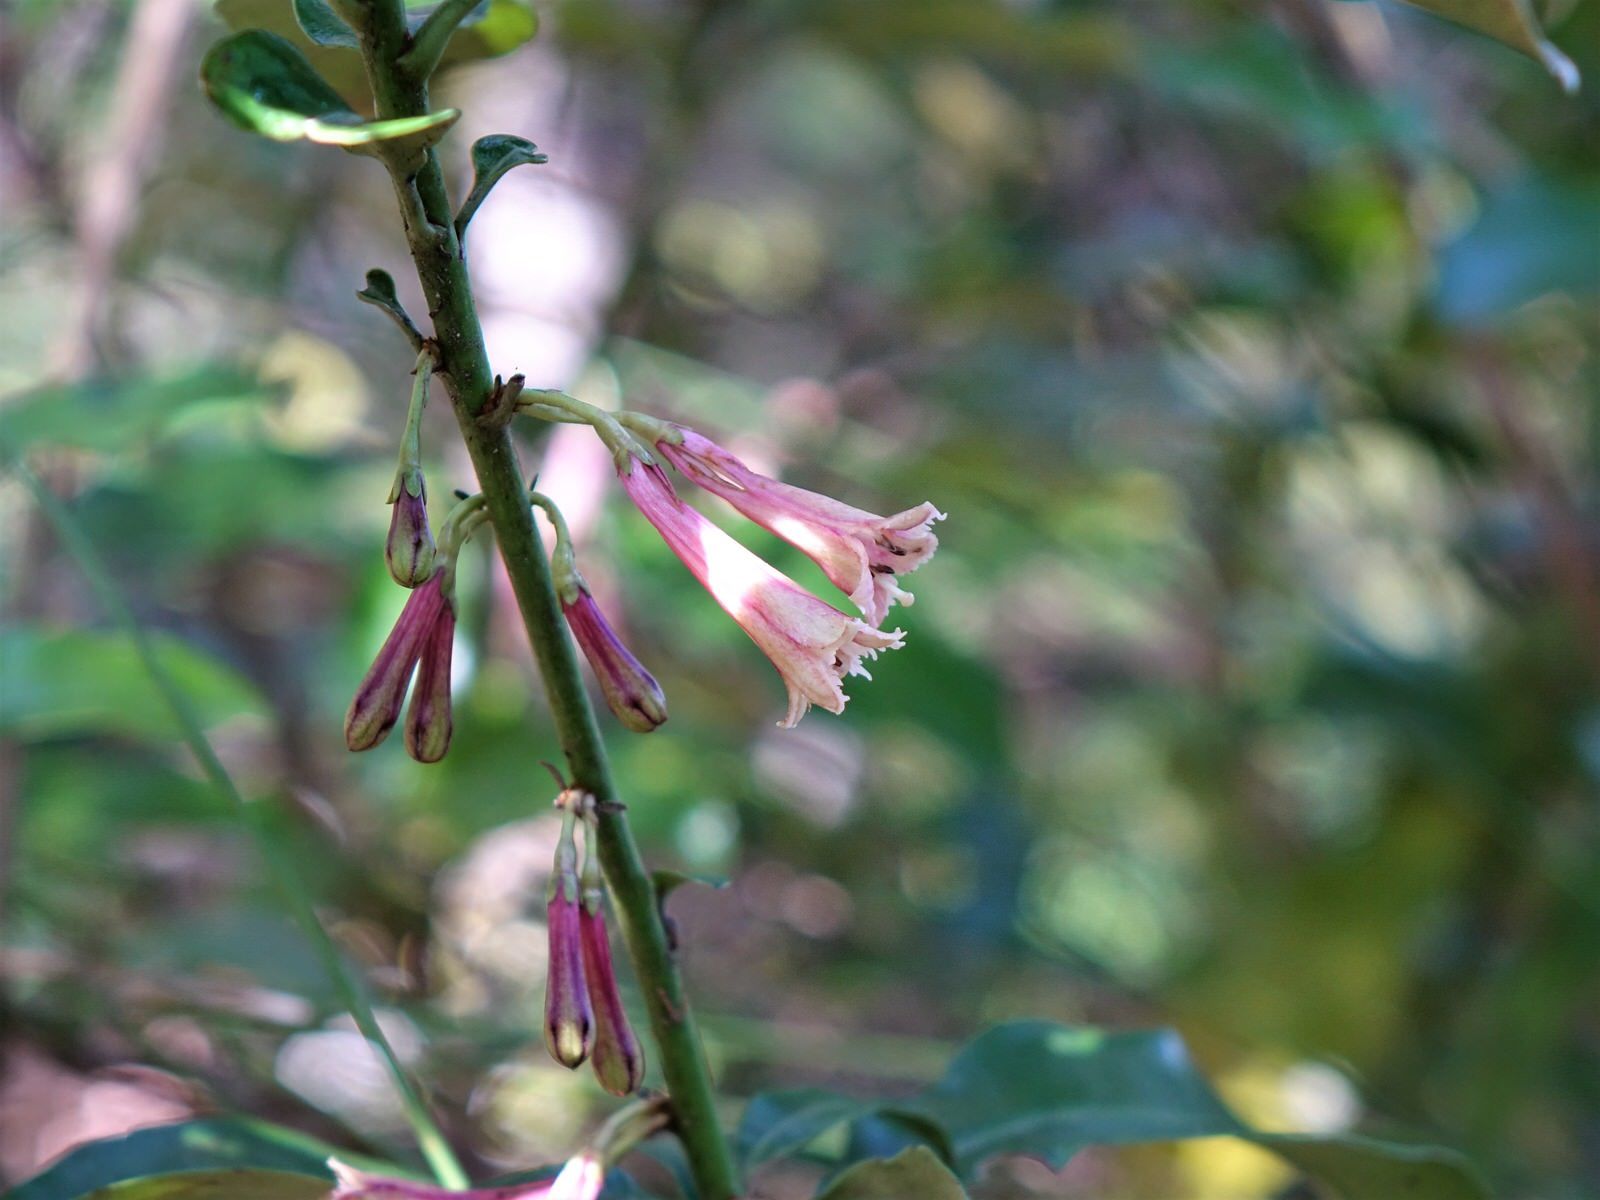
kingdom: Plantae
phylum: Tracheophyta
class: Magnoliopsida
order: Asterales
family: Alseuosmiaceae
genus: Alseuosmia
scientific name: Alseuosmia macrophylla
